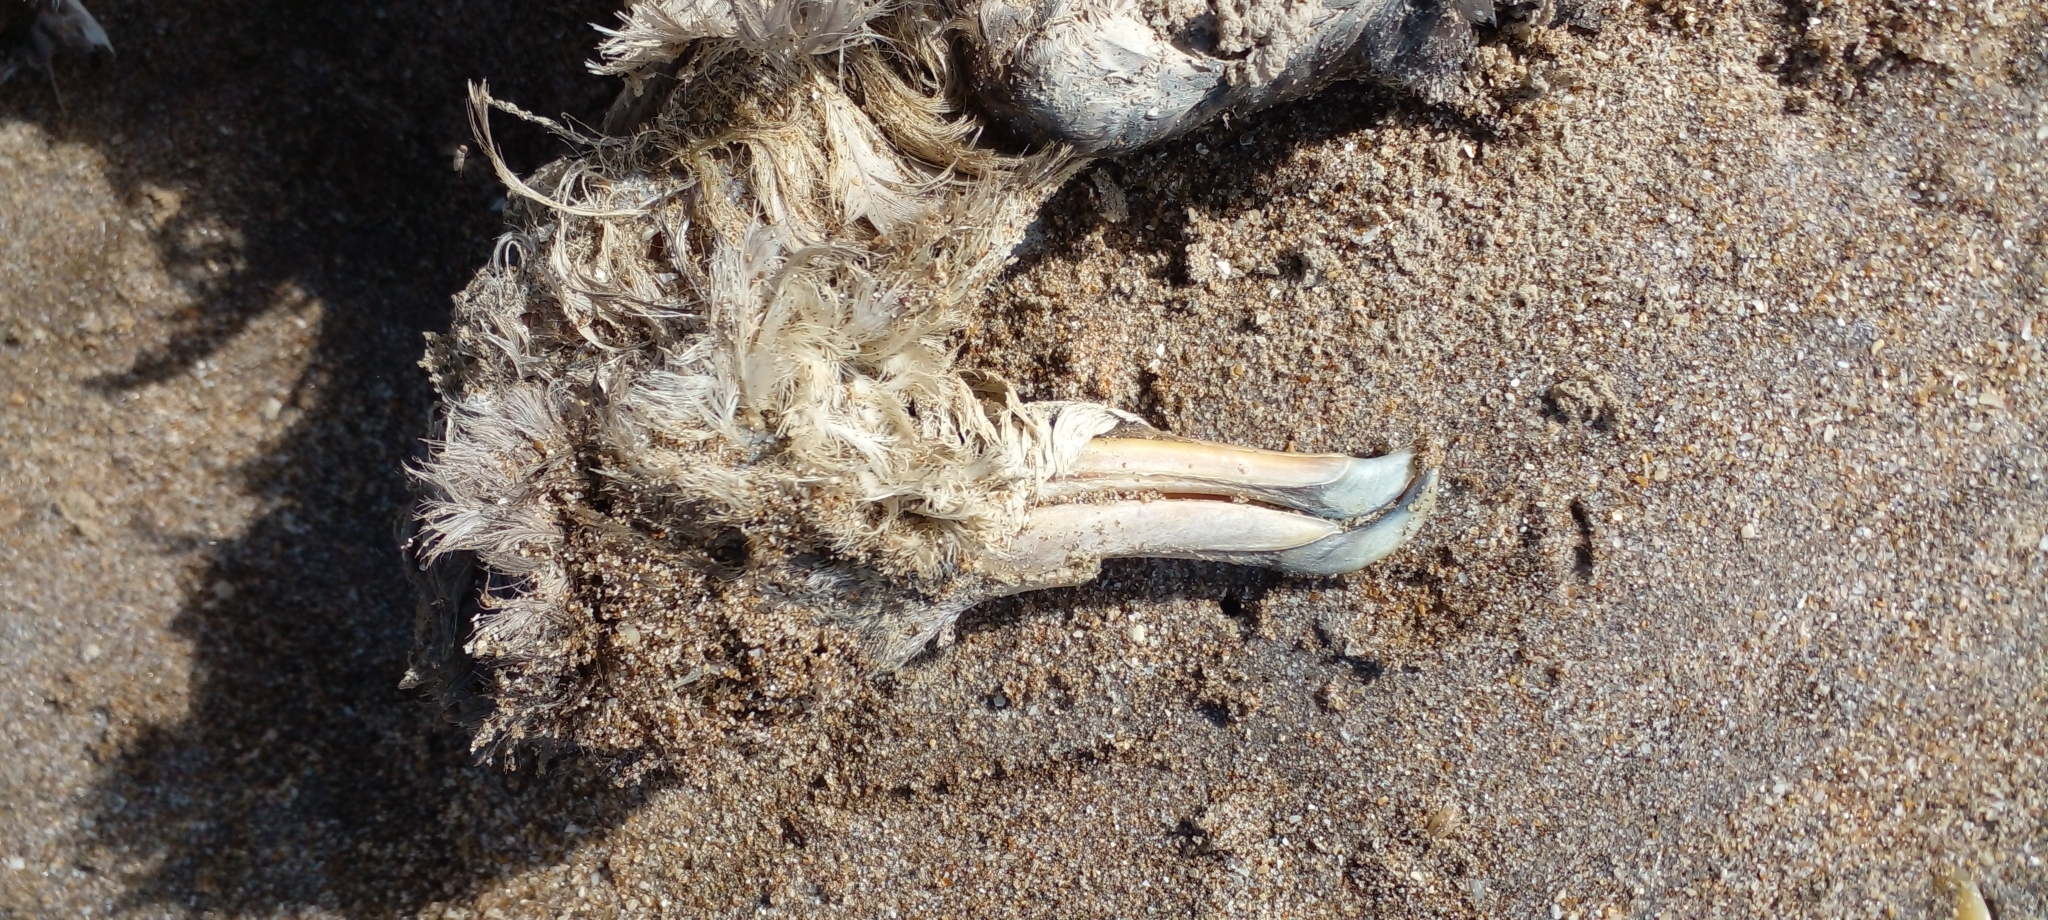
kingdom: Animalia
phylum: Chordata
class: Aves
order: Procellariiformes
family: Procellariidae
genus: Macronectes
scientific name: Macronectes giganteus
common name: Southern giant petrel
